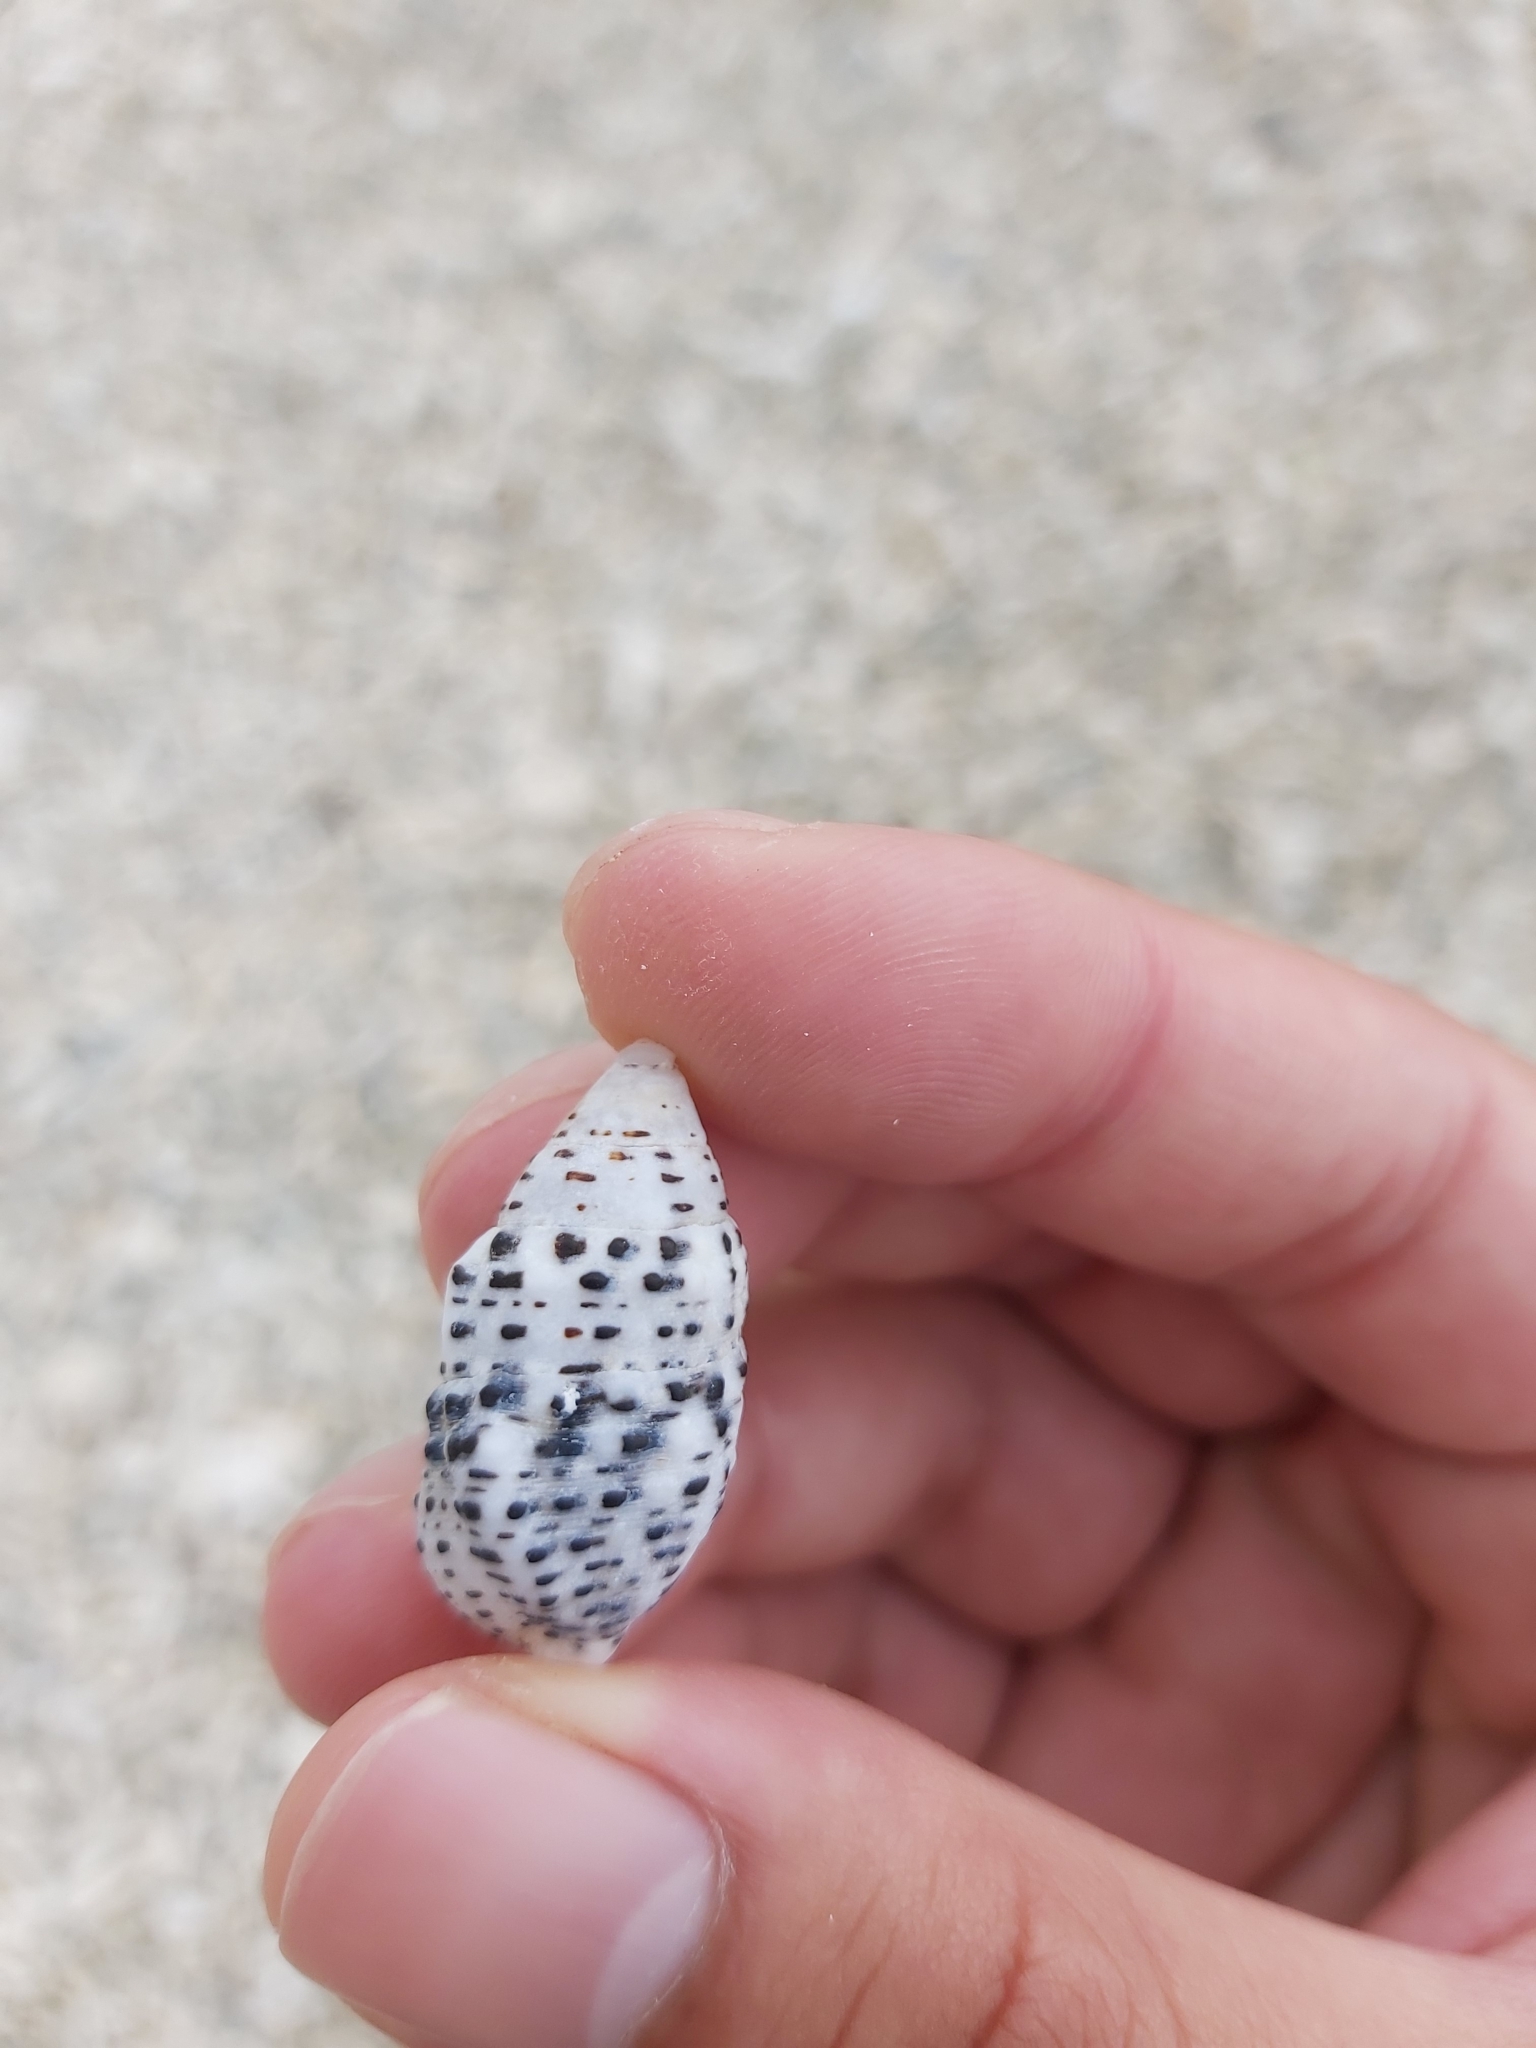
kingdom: Animalia
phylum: Mollusca
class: Gastropoda
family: Cerithiidae
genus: Clypeomorus
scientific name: Clypeomorus petrosa
